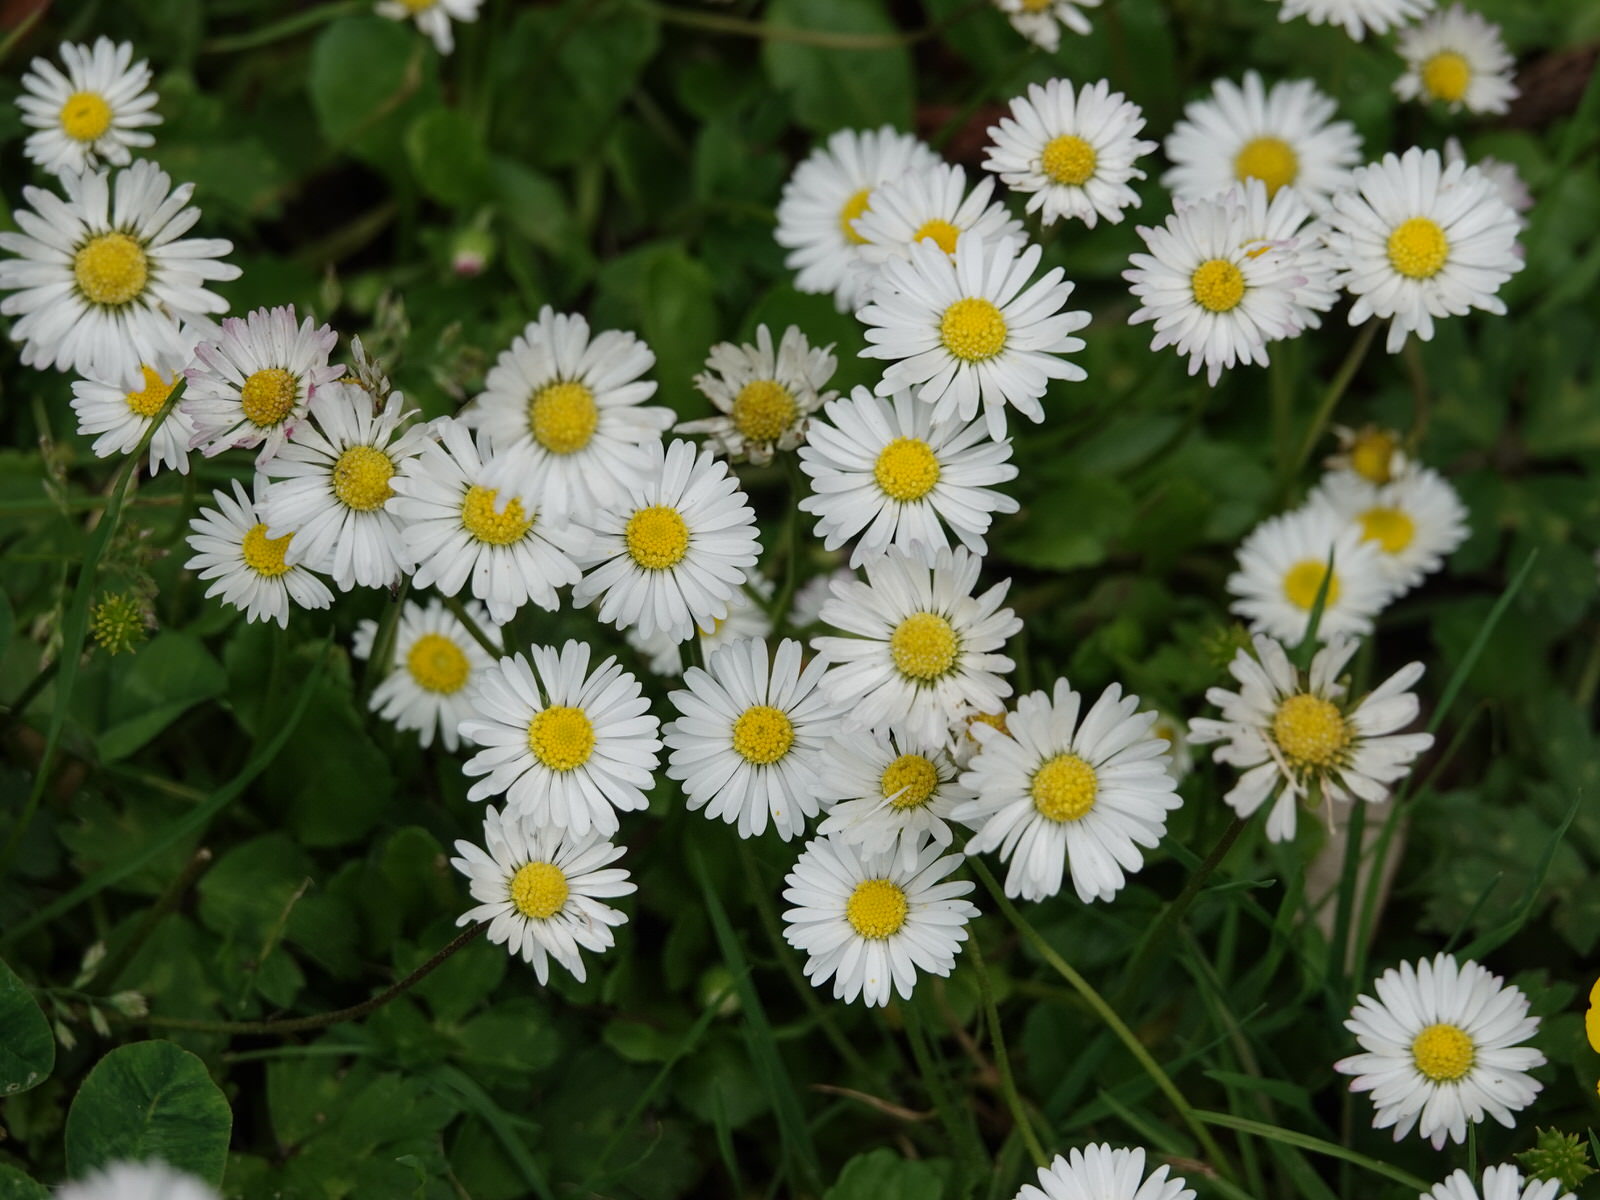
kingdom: Plantae
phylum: Tracheophyta
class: Magnoliopsida
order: Asterales
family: Asteraceae
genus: Bellis
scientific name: Bellis perennis
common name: Lawndaisy
